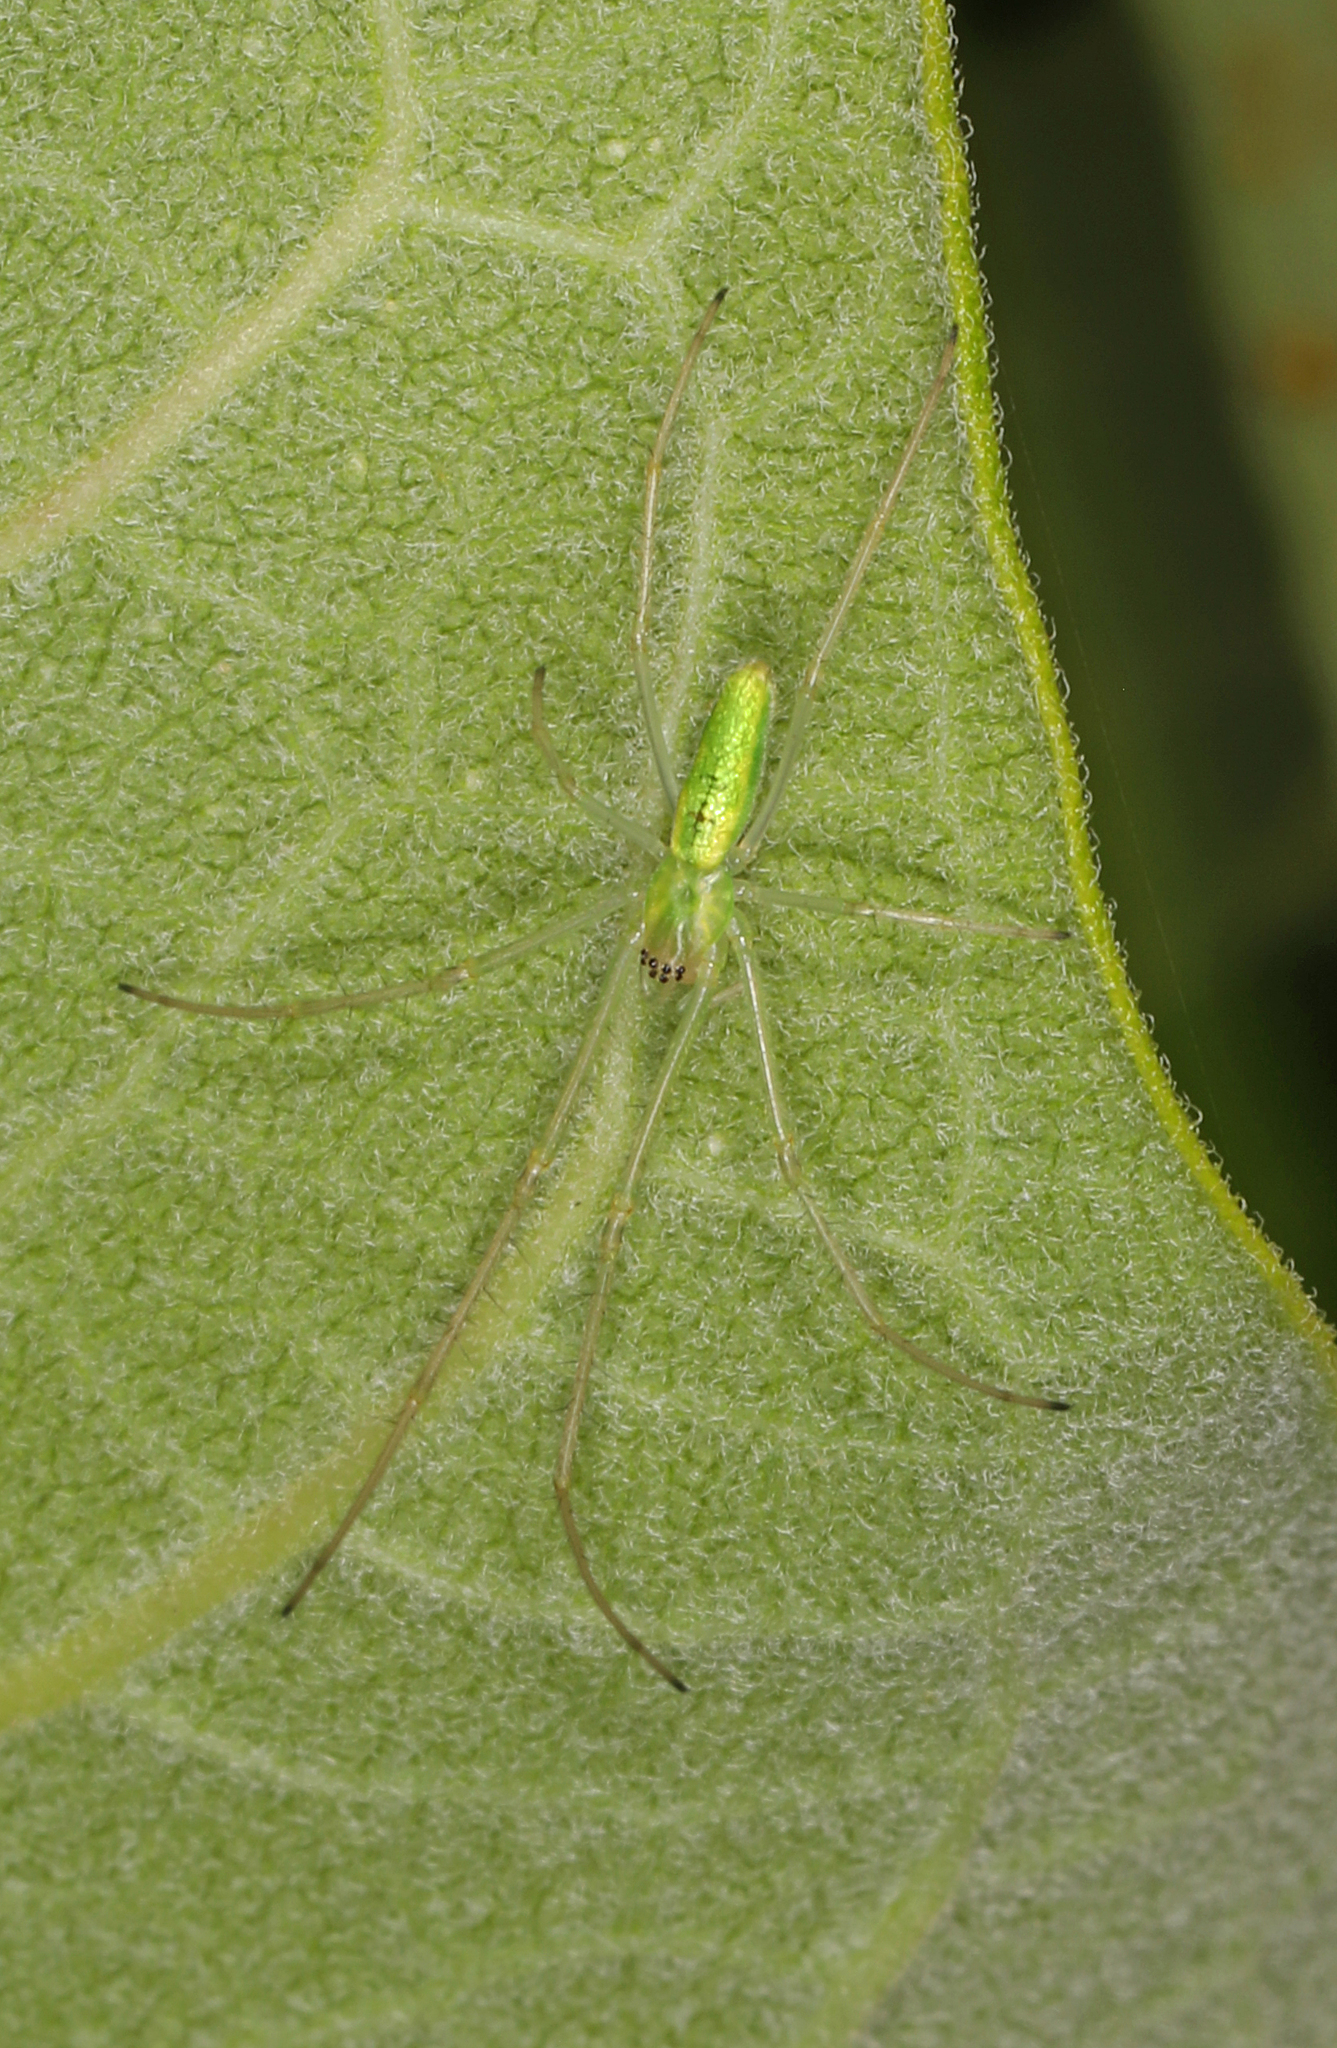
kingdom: Animalia
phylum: Arthropoda
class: Arachnida
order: Araneae
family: Tetragnathidae
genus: Tetragnatha
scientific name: Tetragnatha
